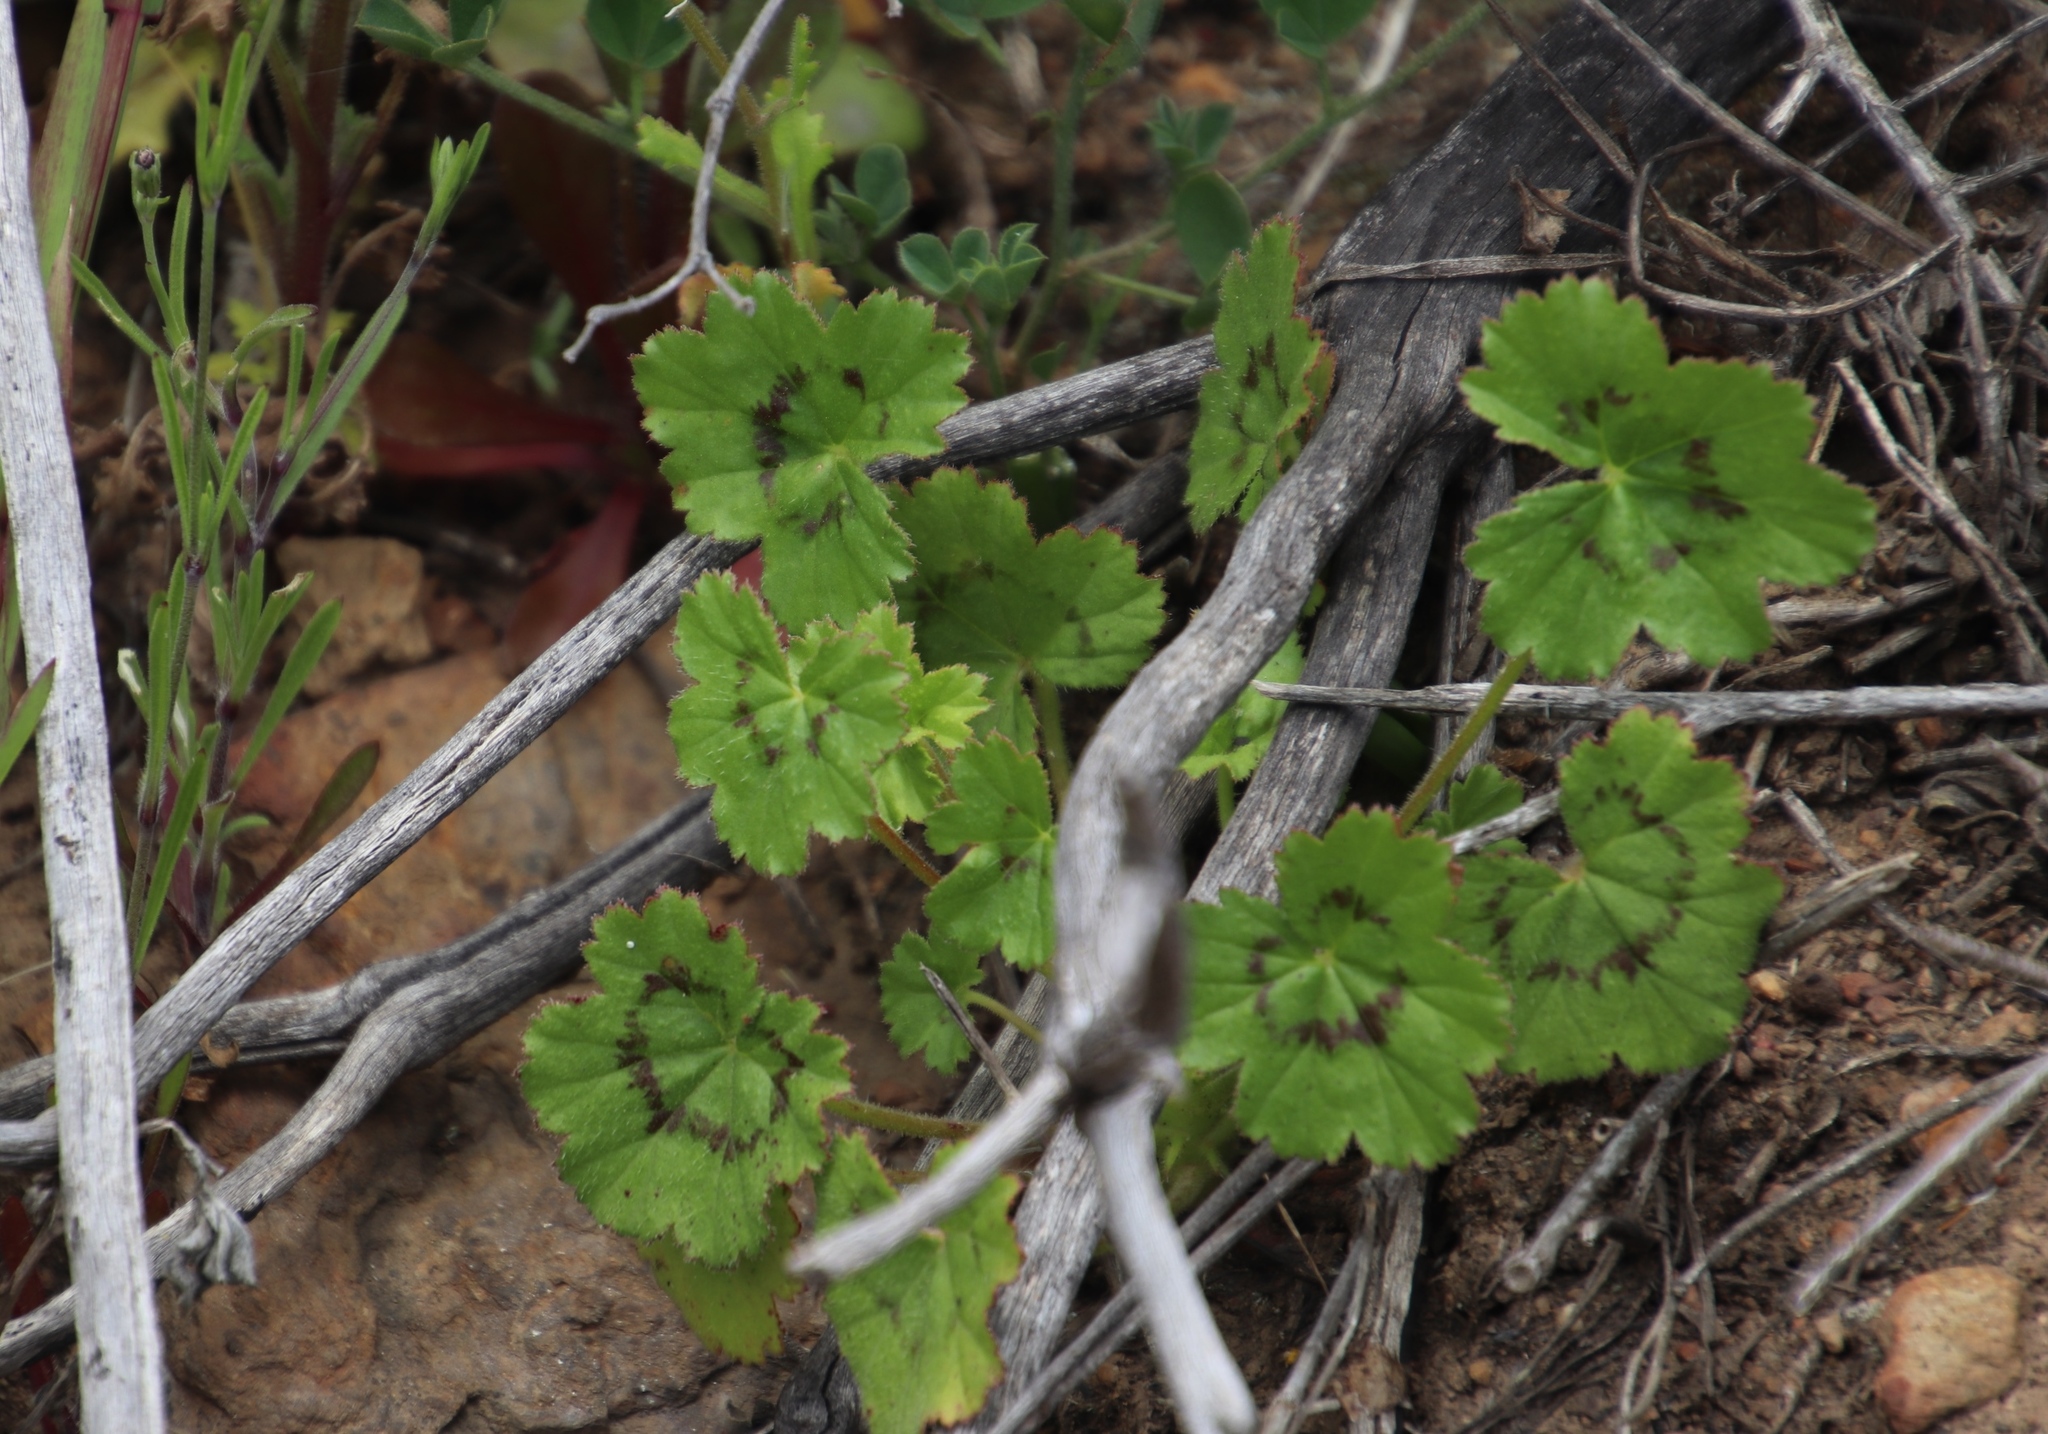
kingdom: Plantae
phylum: Tracheophyta
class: Magnoliopsida
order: Geraniales
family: Geraniaceae
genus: Pelargonium
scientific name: Pelargonium elongatum
